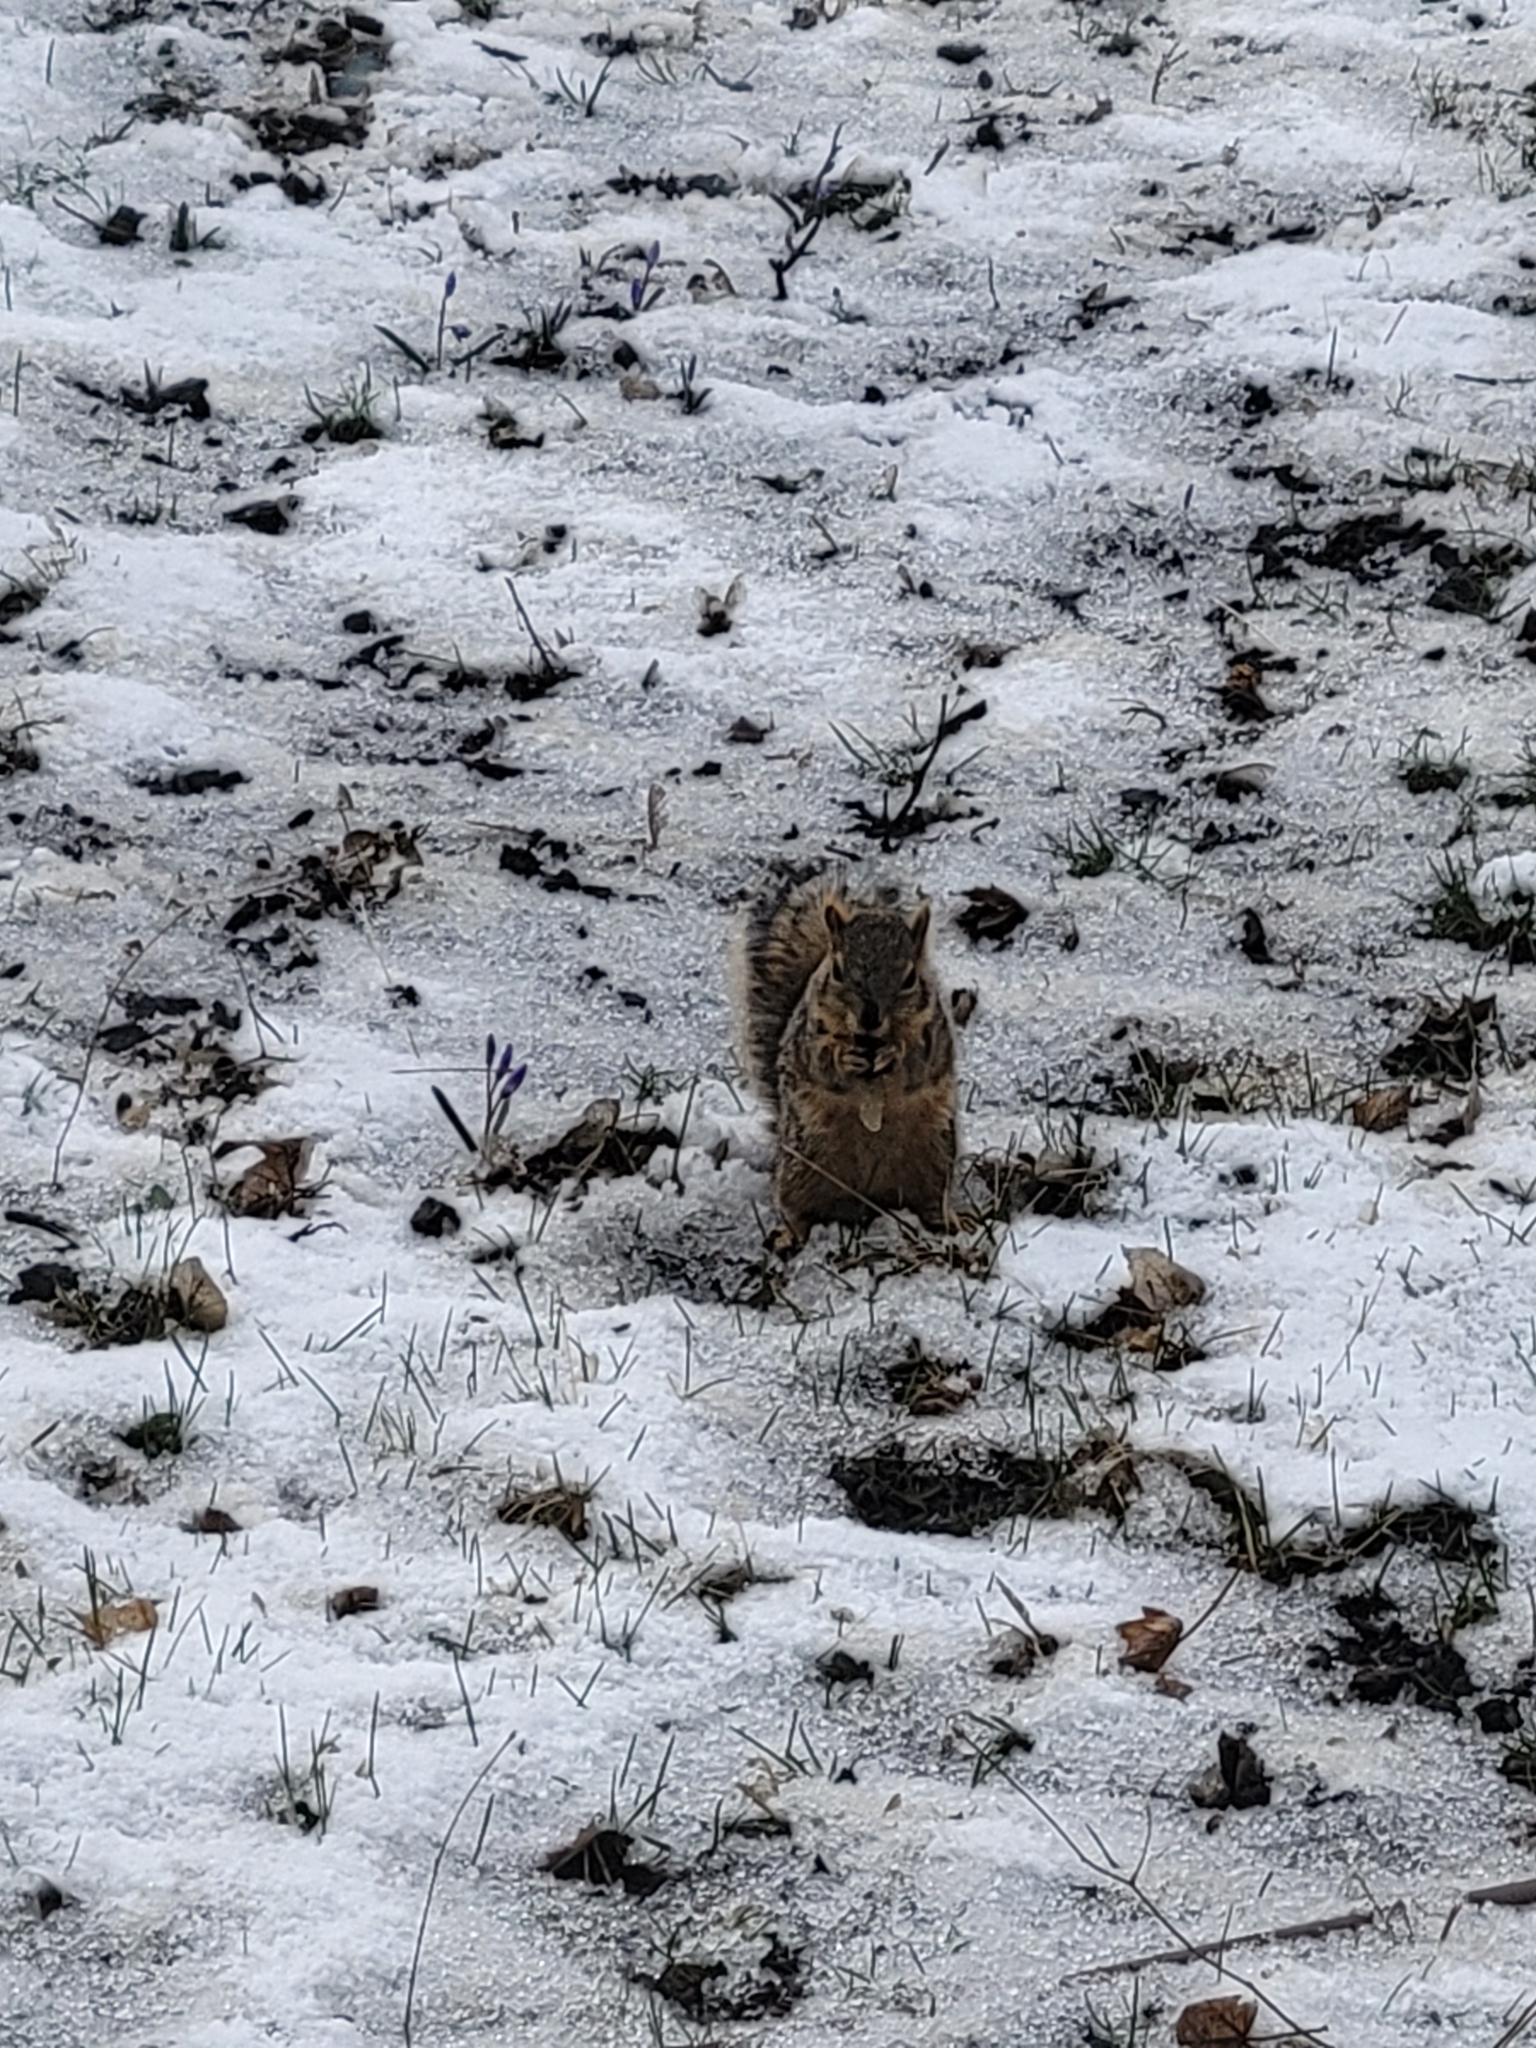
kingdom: Animalia
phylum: Chordata
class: Mammalia
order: Rodentia
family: Sciuridae
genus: Sciurus
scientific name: Sciurus niger
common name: Fox squirrel
